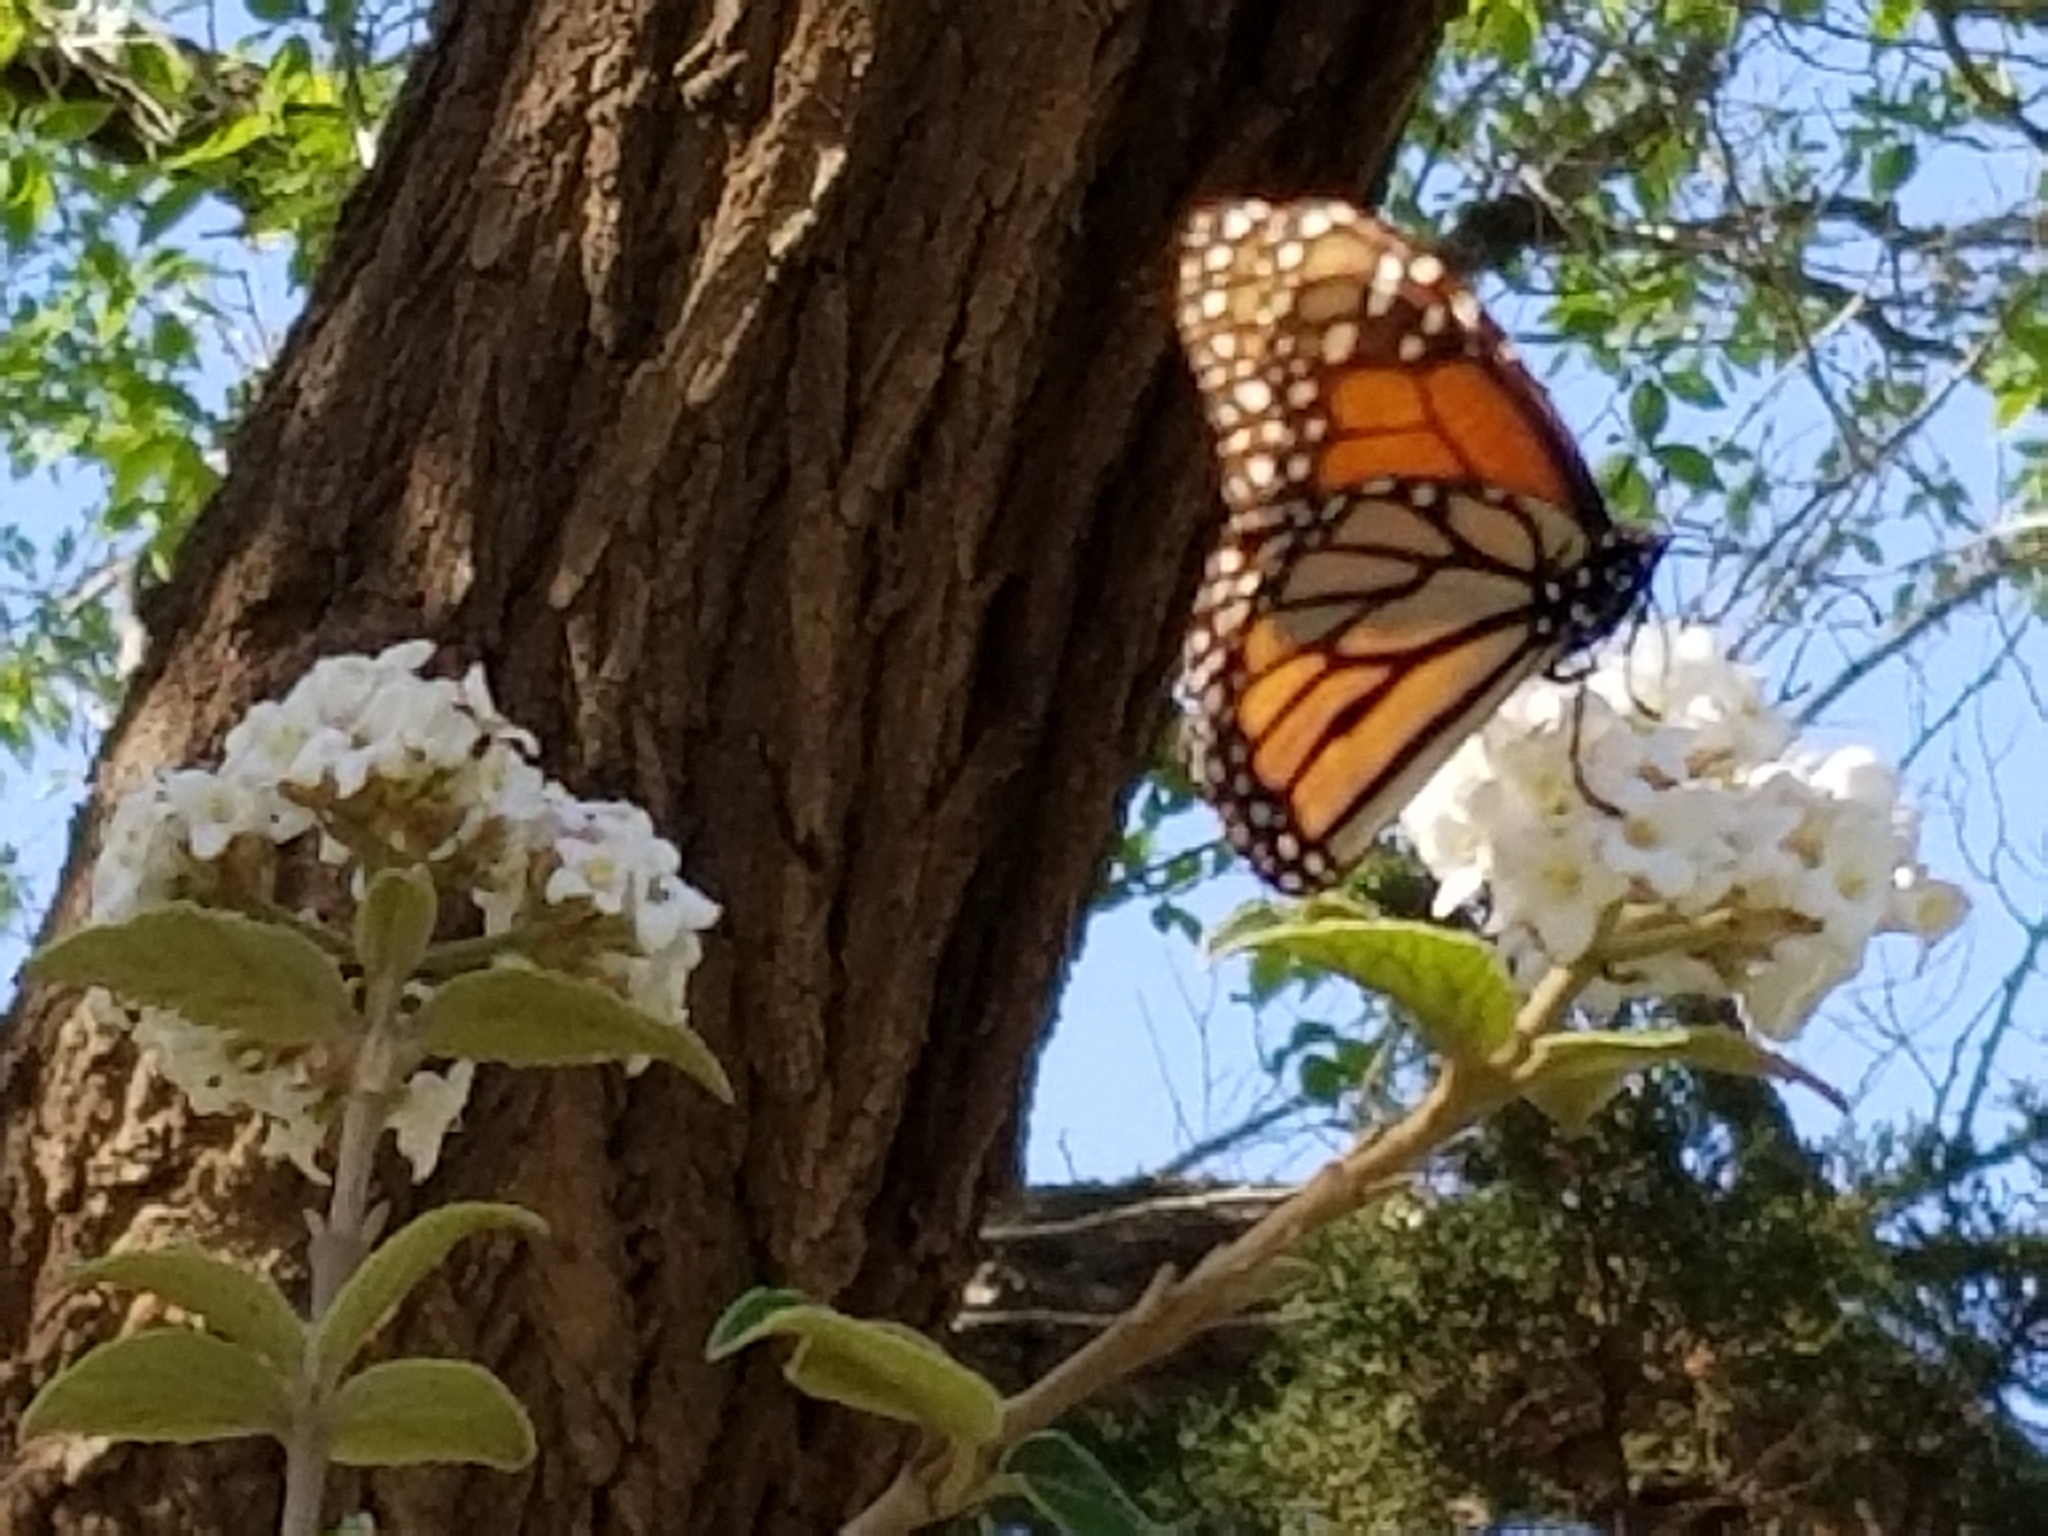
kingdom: Animalia
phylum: Arthropoda
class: Insecta
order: Lepidoptera
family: Nymphalidae
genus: Danaus
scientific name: Danaus plexippus
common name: Monarch
